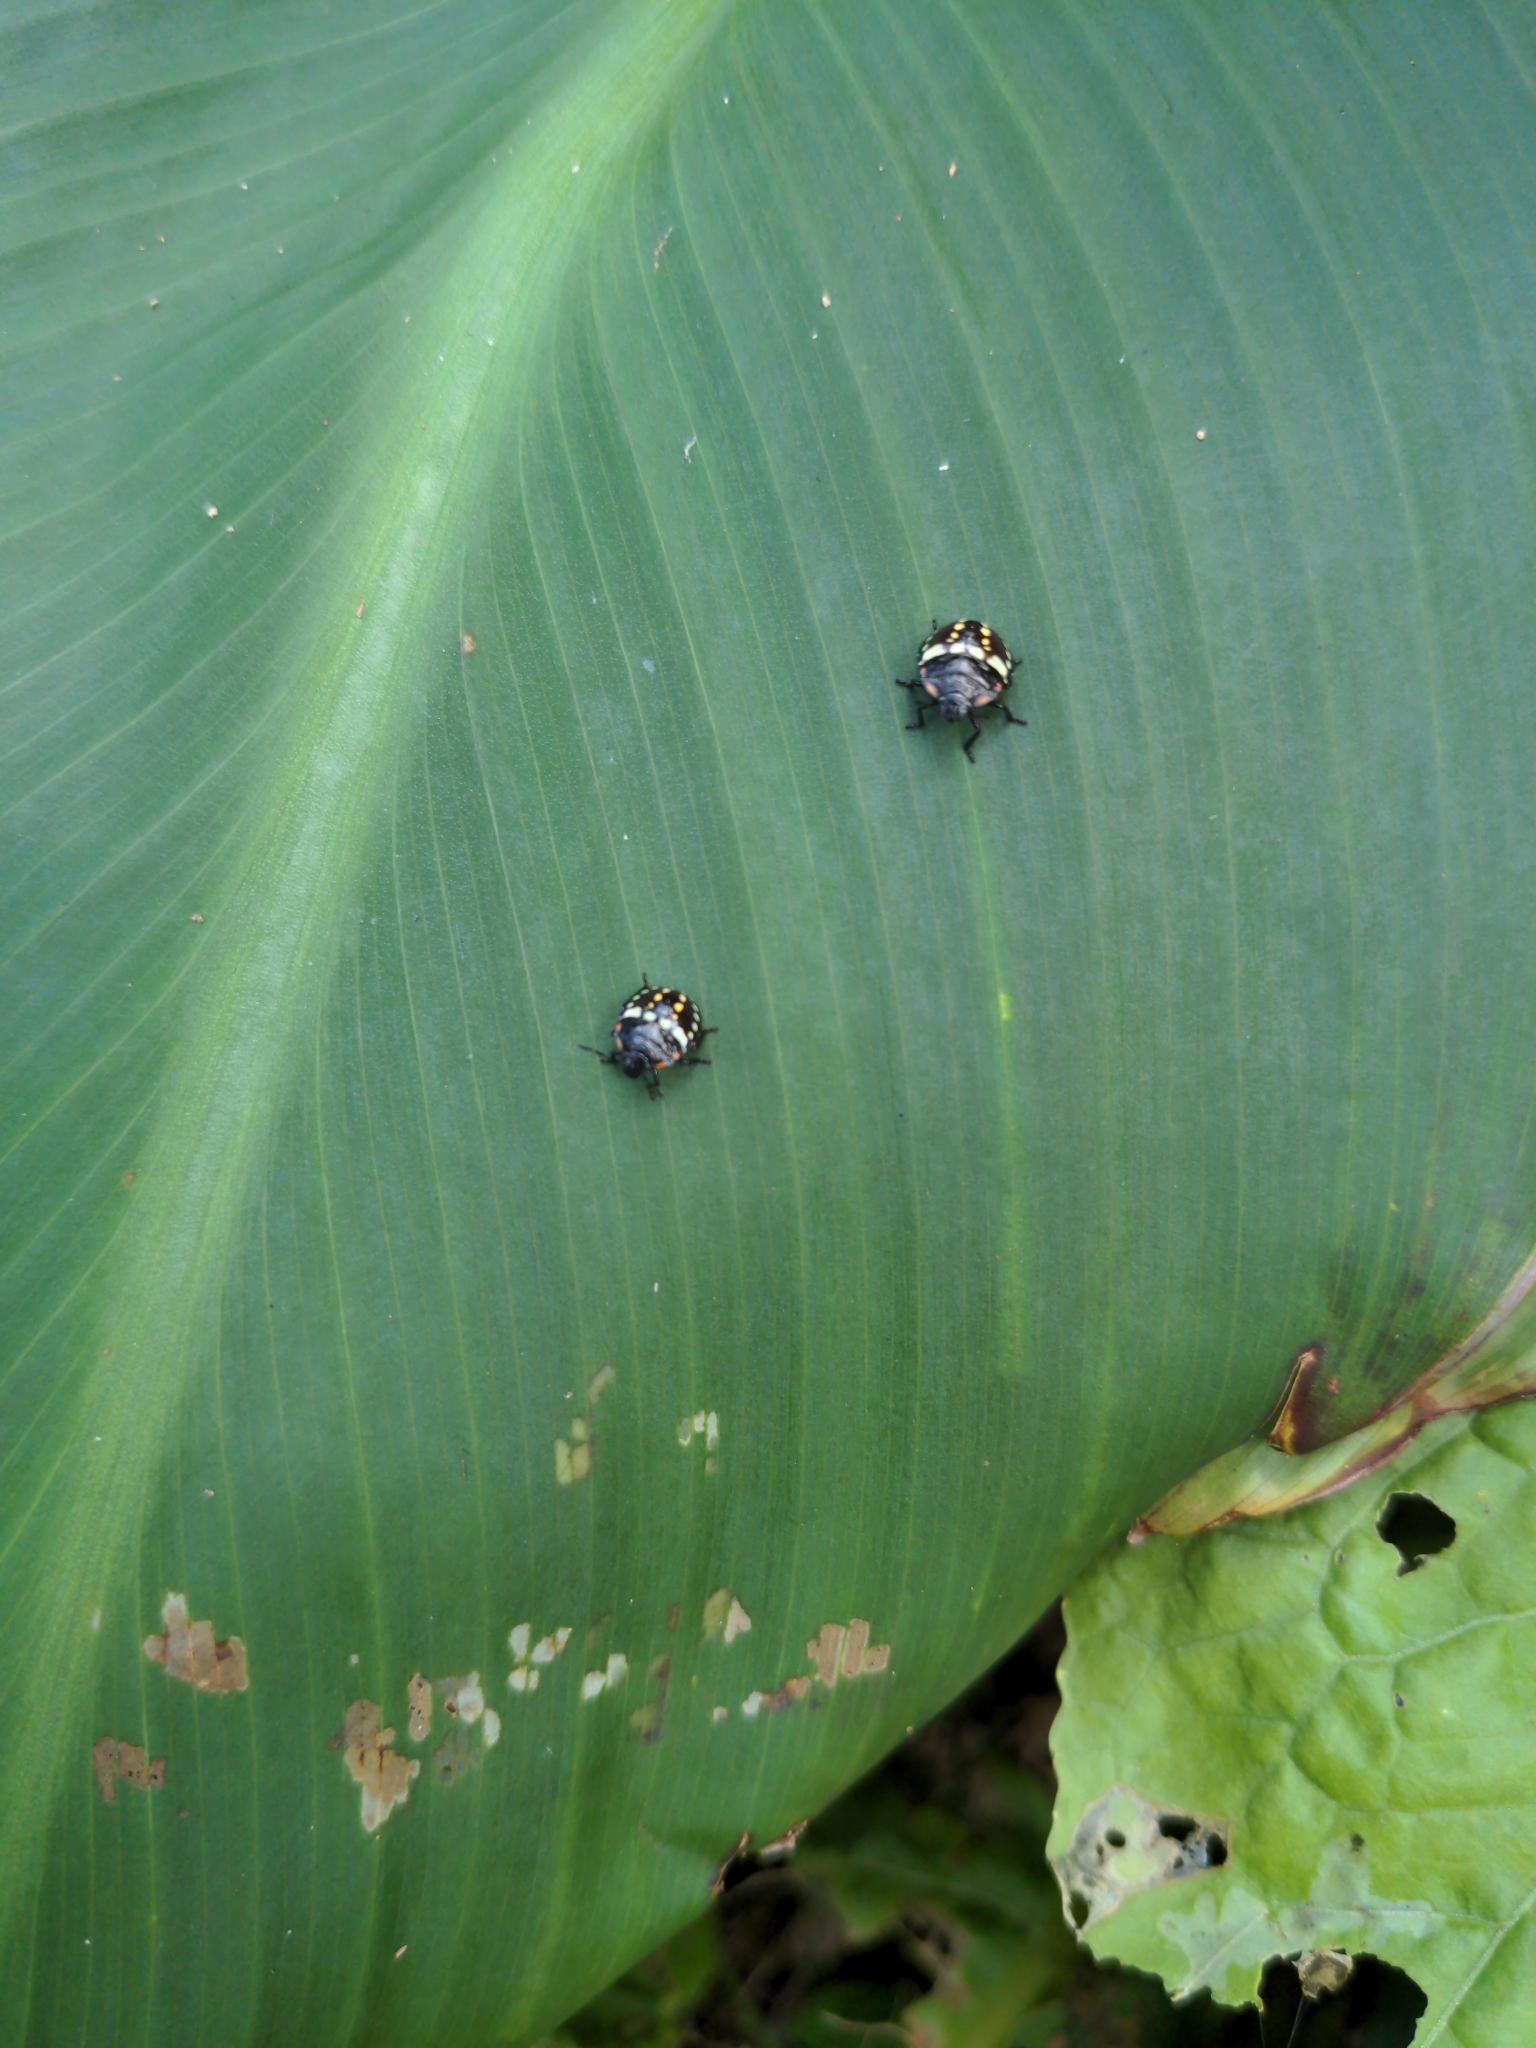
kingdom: Animalia
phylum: Arthropoda
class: Insecta
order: Hemiptera
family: Pentatomidae
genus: Nezara
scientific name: Nezara viridula
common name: Southern green stink bug
